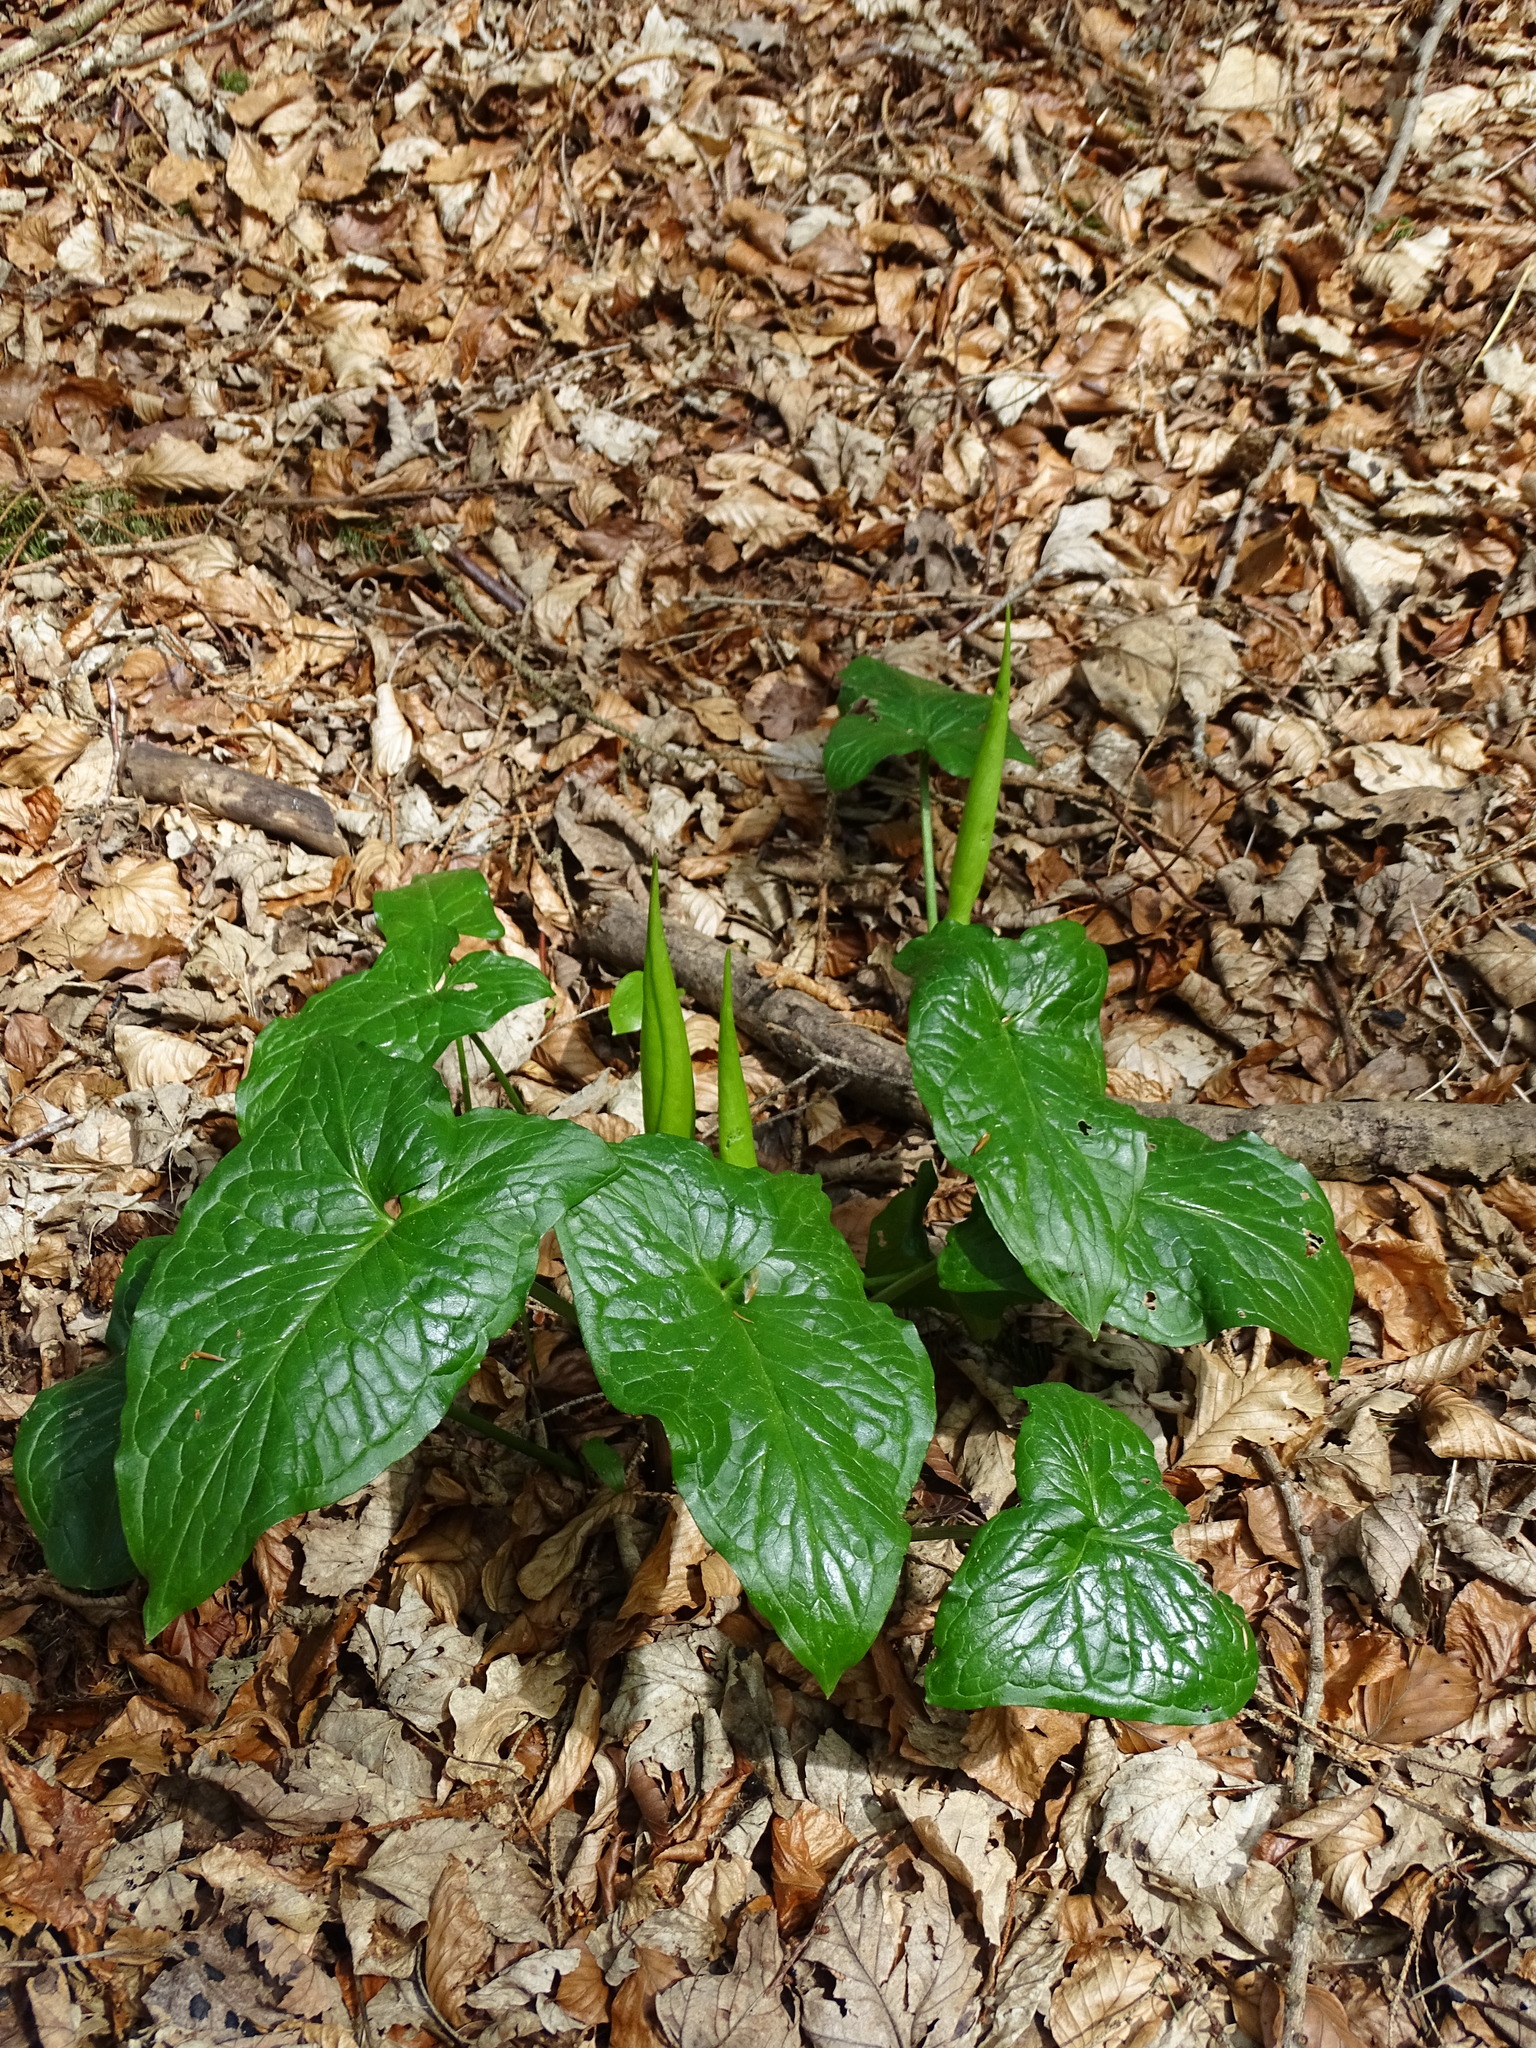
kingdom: Plantae
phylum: Tracheophyta
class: Liliopsida
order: Alismatales
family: Araceae
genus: Arum
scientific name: Arum maculatum
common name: Lords-and-ladies
